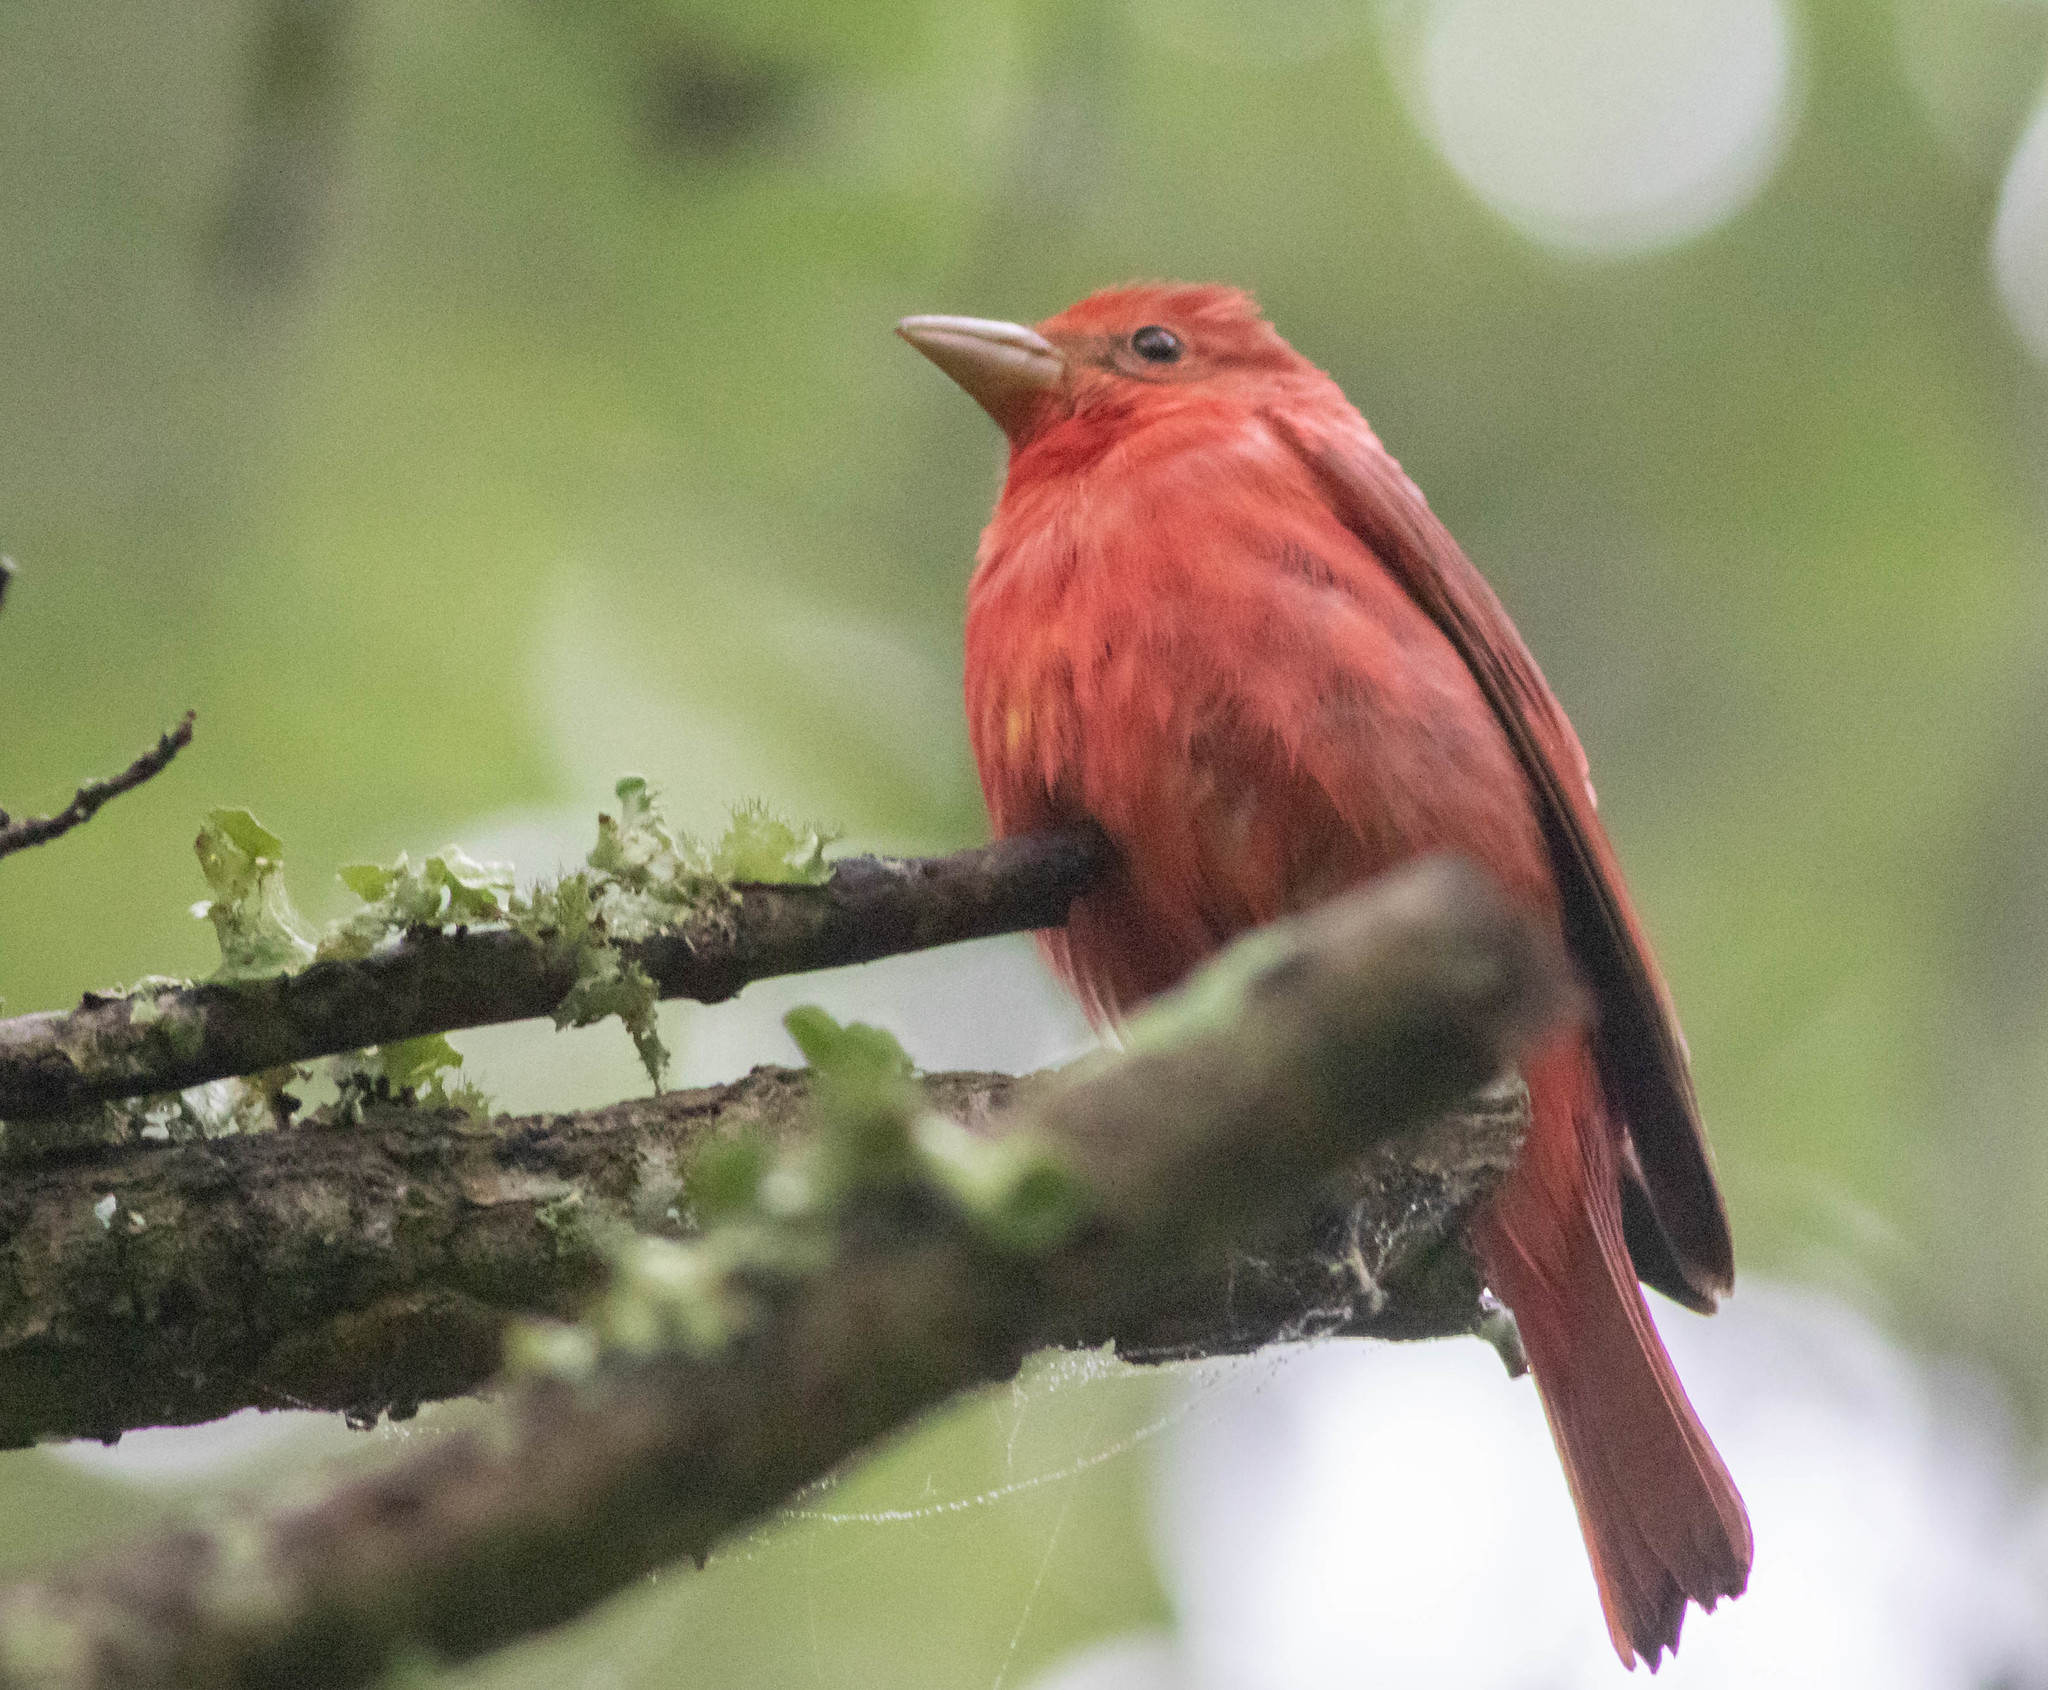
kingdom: Animalia
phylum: Chordata
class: Aves
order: Passeriformes
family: Cardinalidae
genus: Piranga
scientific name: Piranga rubra
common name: Summer tanager
